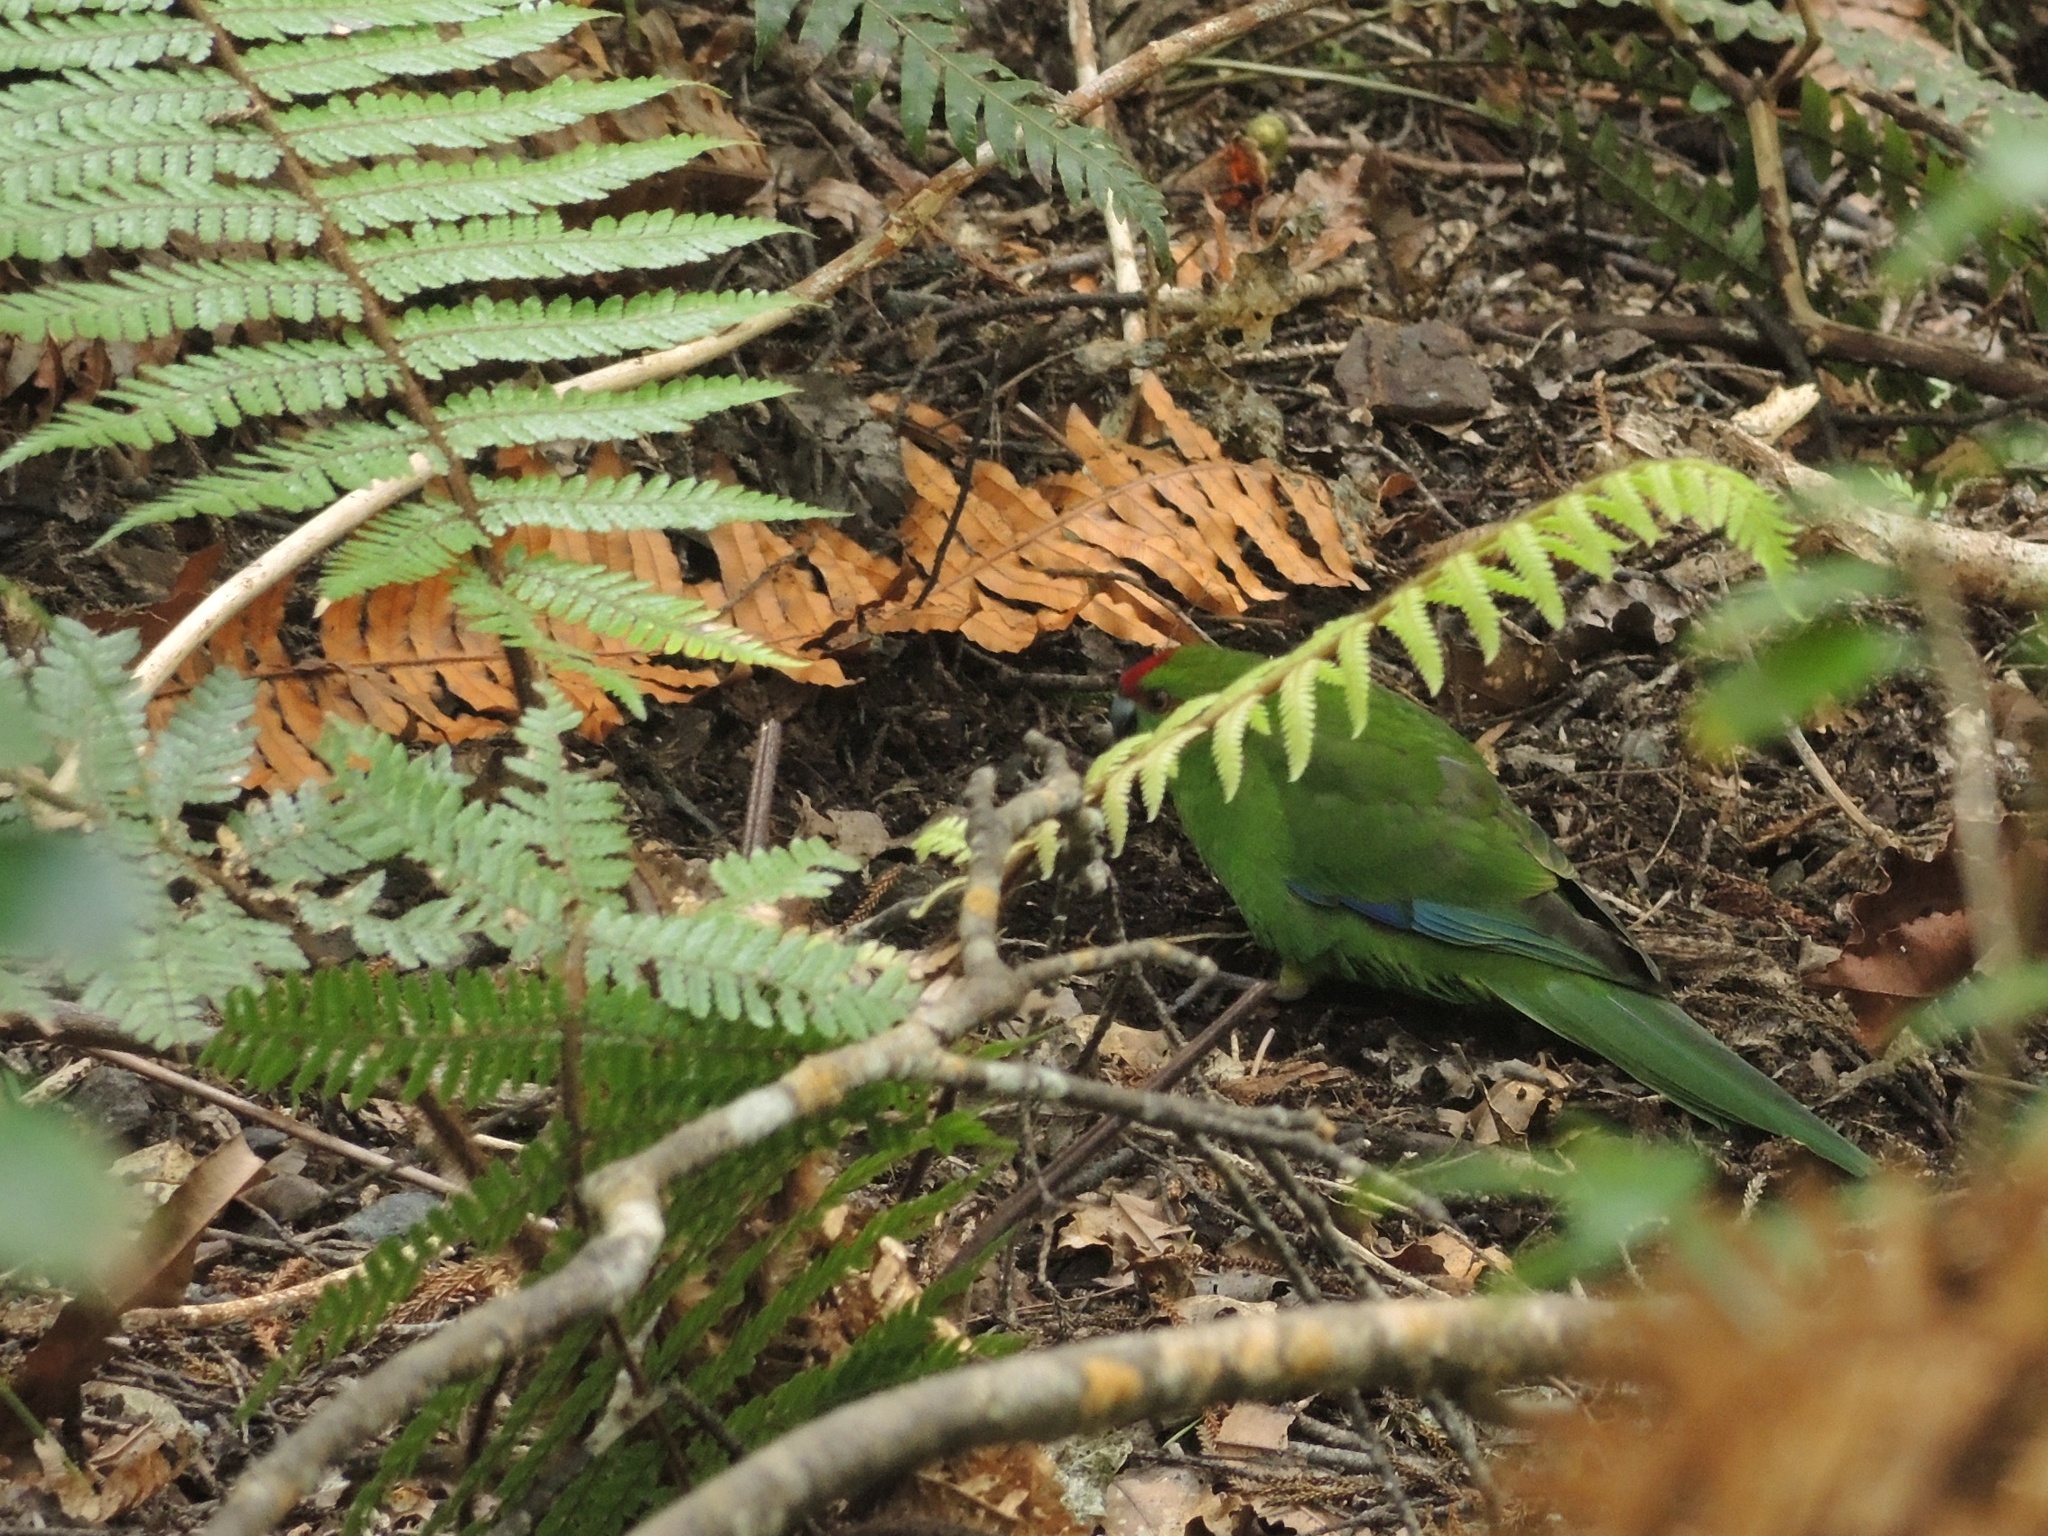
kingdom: Animalia
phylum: Chordata
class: Aves
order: Psittaciformes
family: Psittacidae
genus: Cyanoramphus
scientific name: Cyanoramphus novaezelandiae
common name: Red-fronted parakeet
